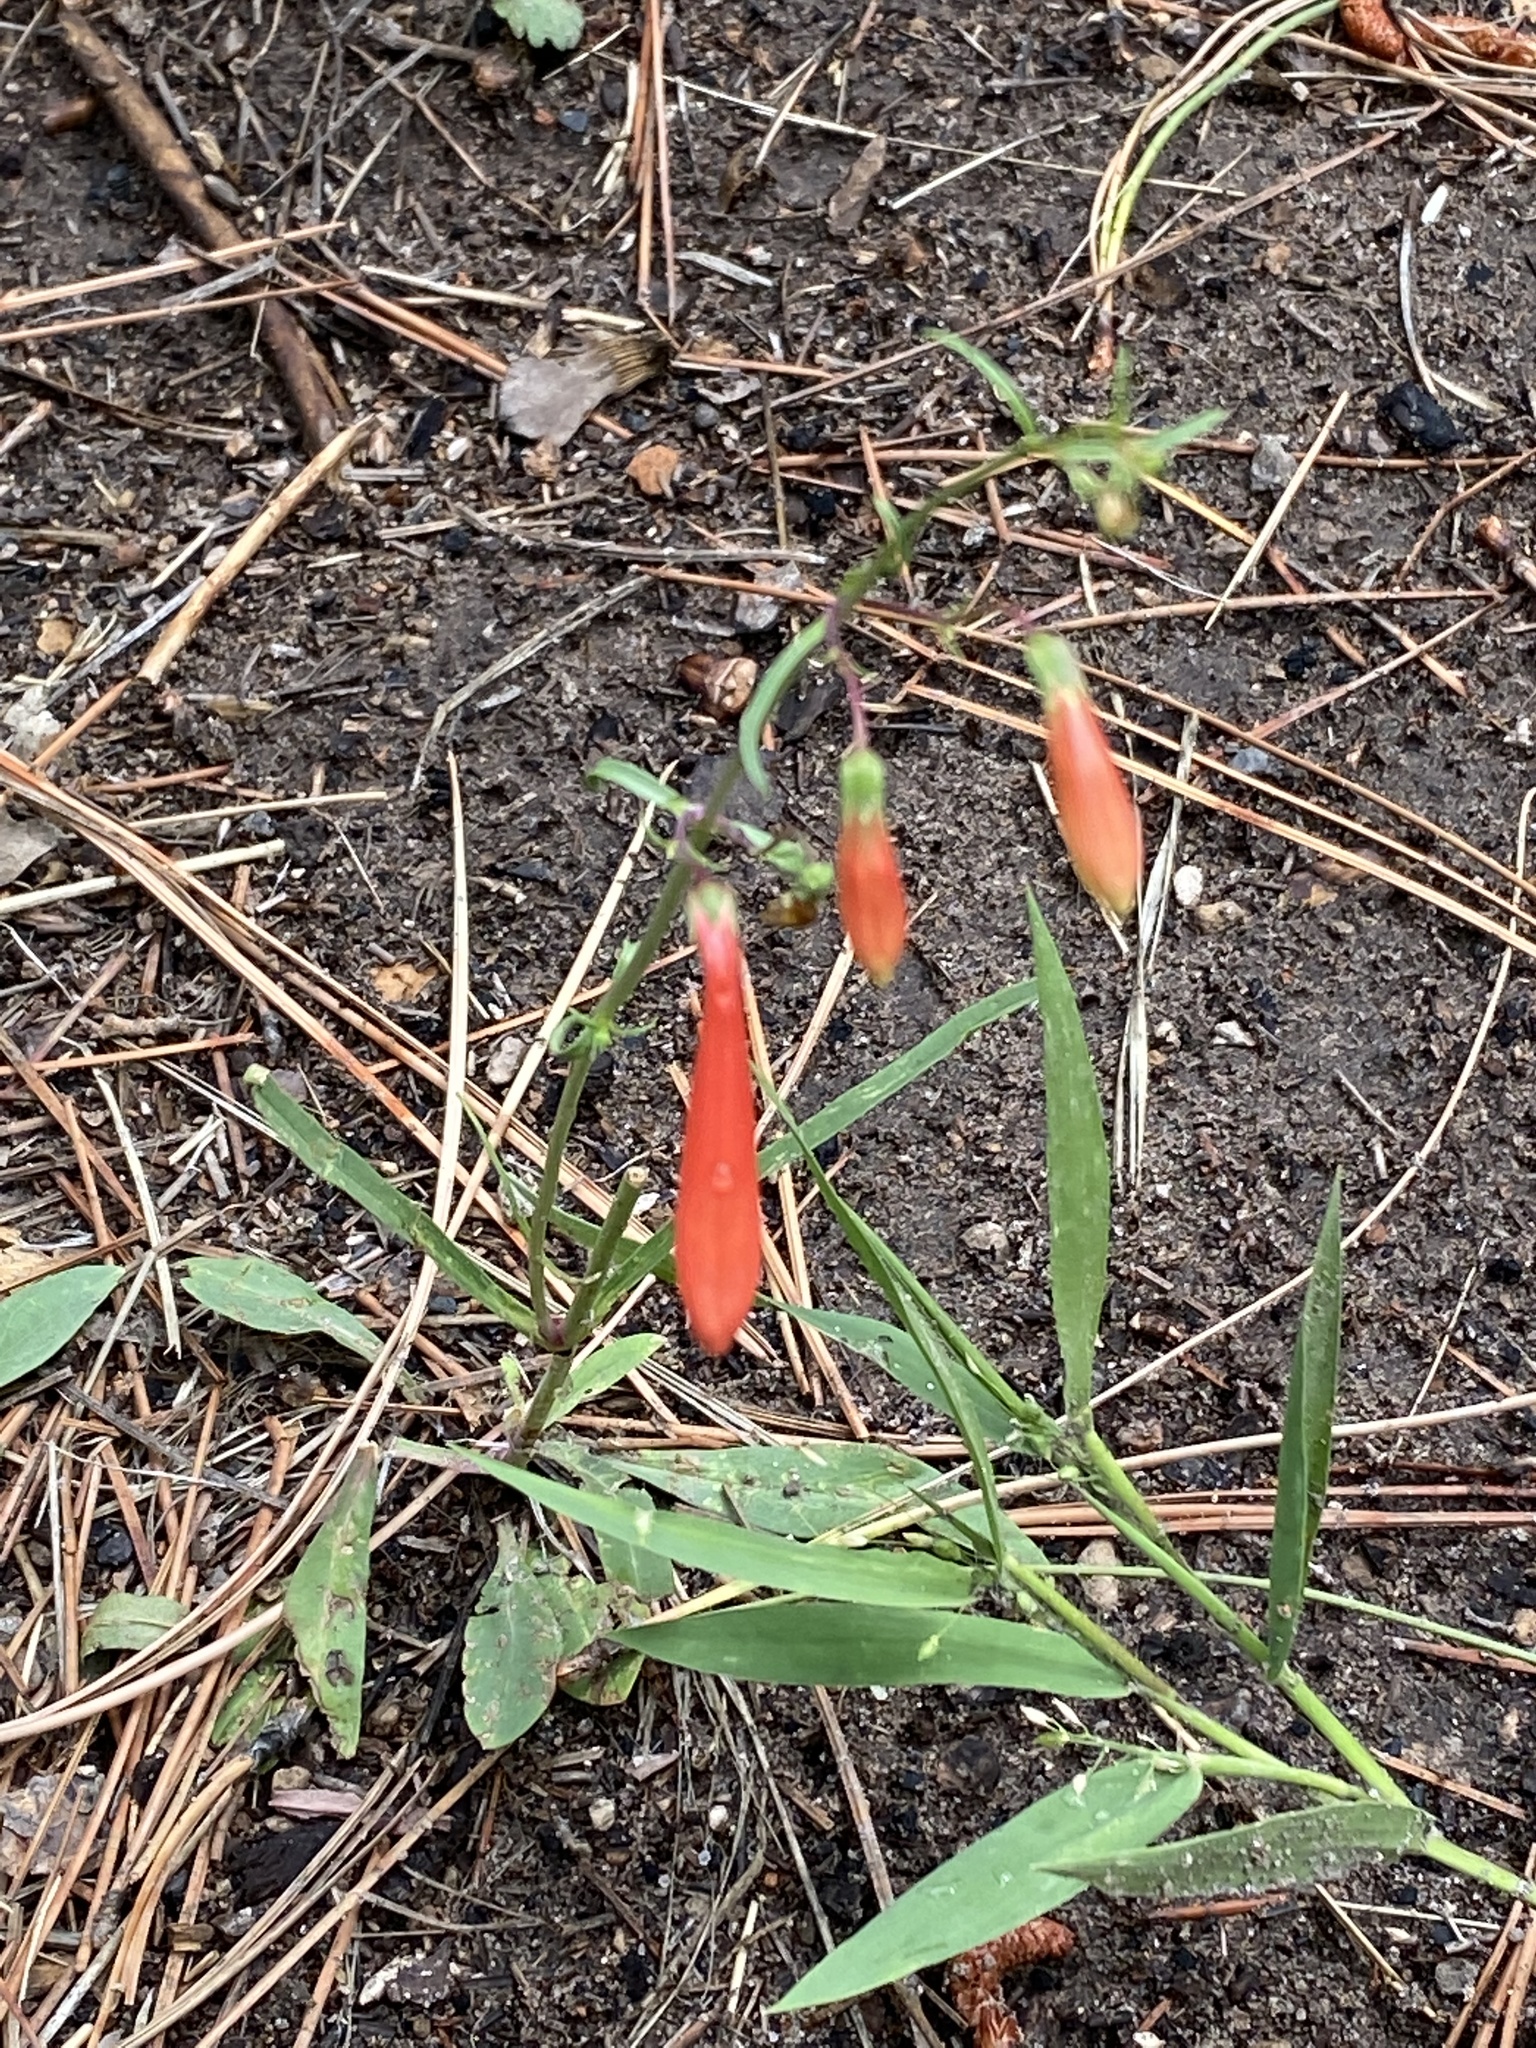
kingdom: Plantae
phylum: Tracheophyta
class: Magnoliopsida
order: Lamiales
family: Plantaginaceae
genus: Penstemon
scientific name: Penstemon barbatus
